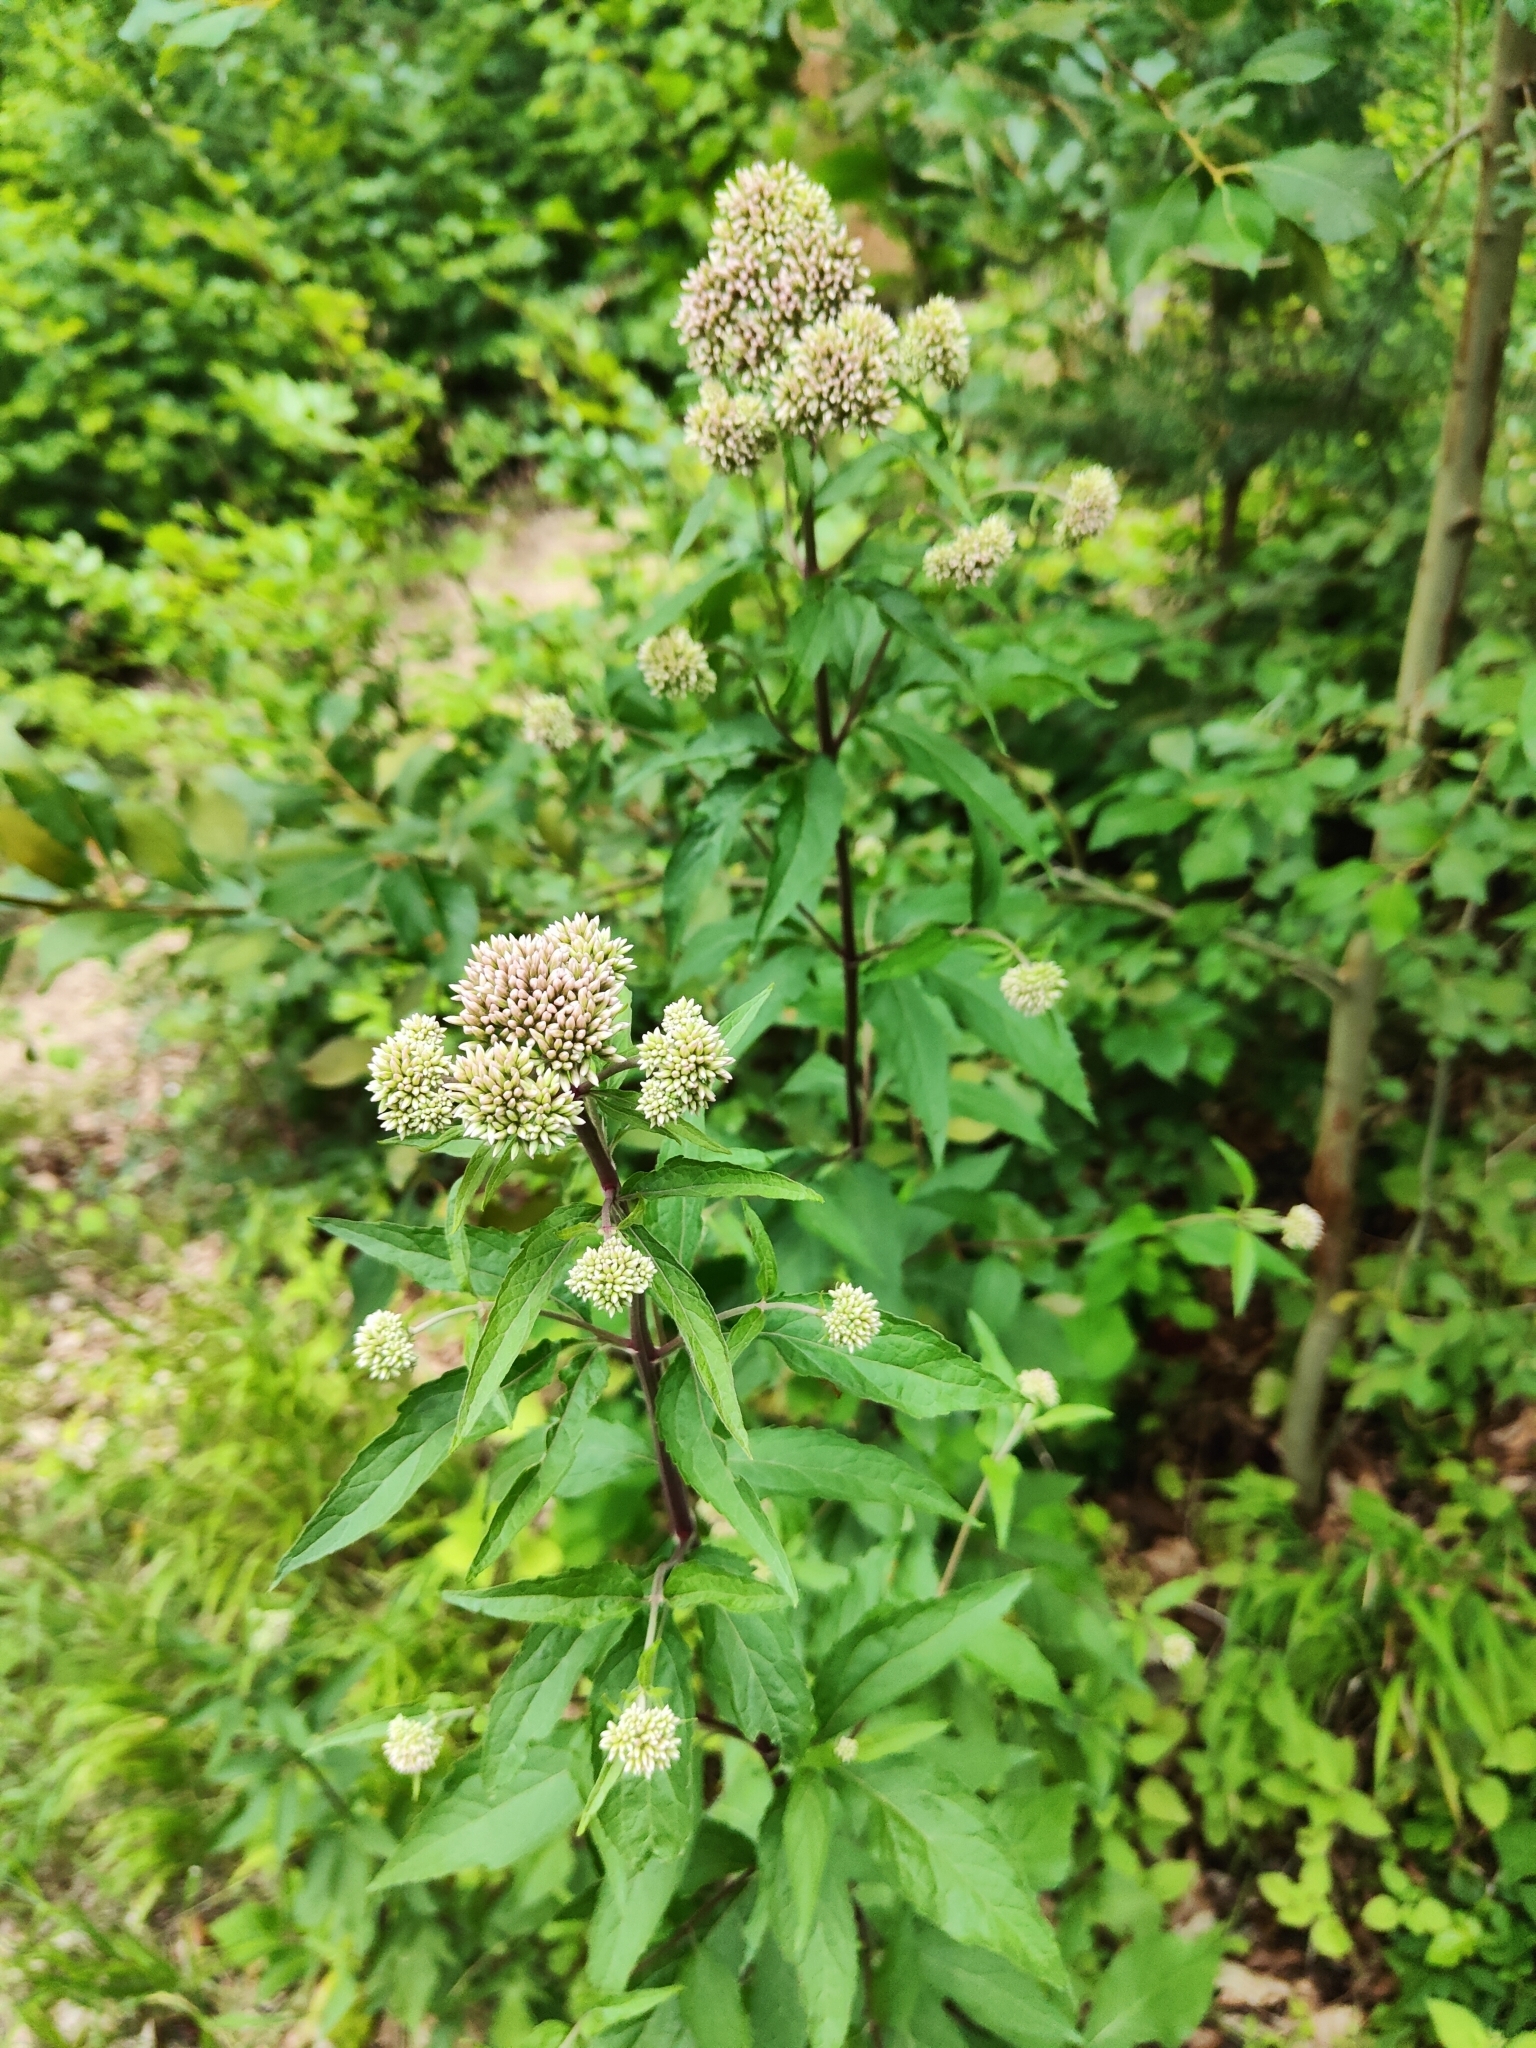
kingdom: Plantae
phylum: Tracheophyta
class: Magnoliopsida
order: Asterales
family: Asteraceae
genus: Eupatorium
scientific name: Eupatorium cannabinum
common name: Hemp-agrimony
